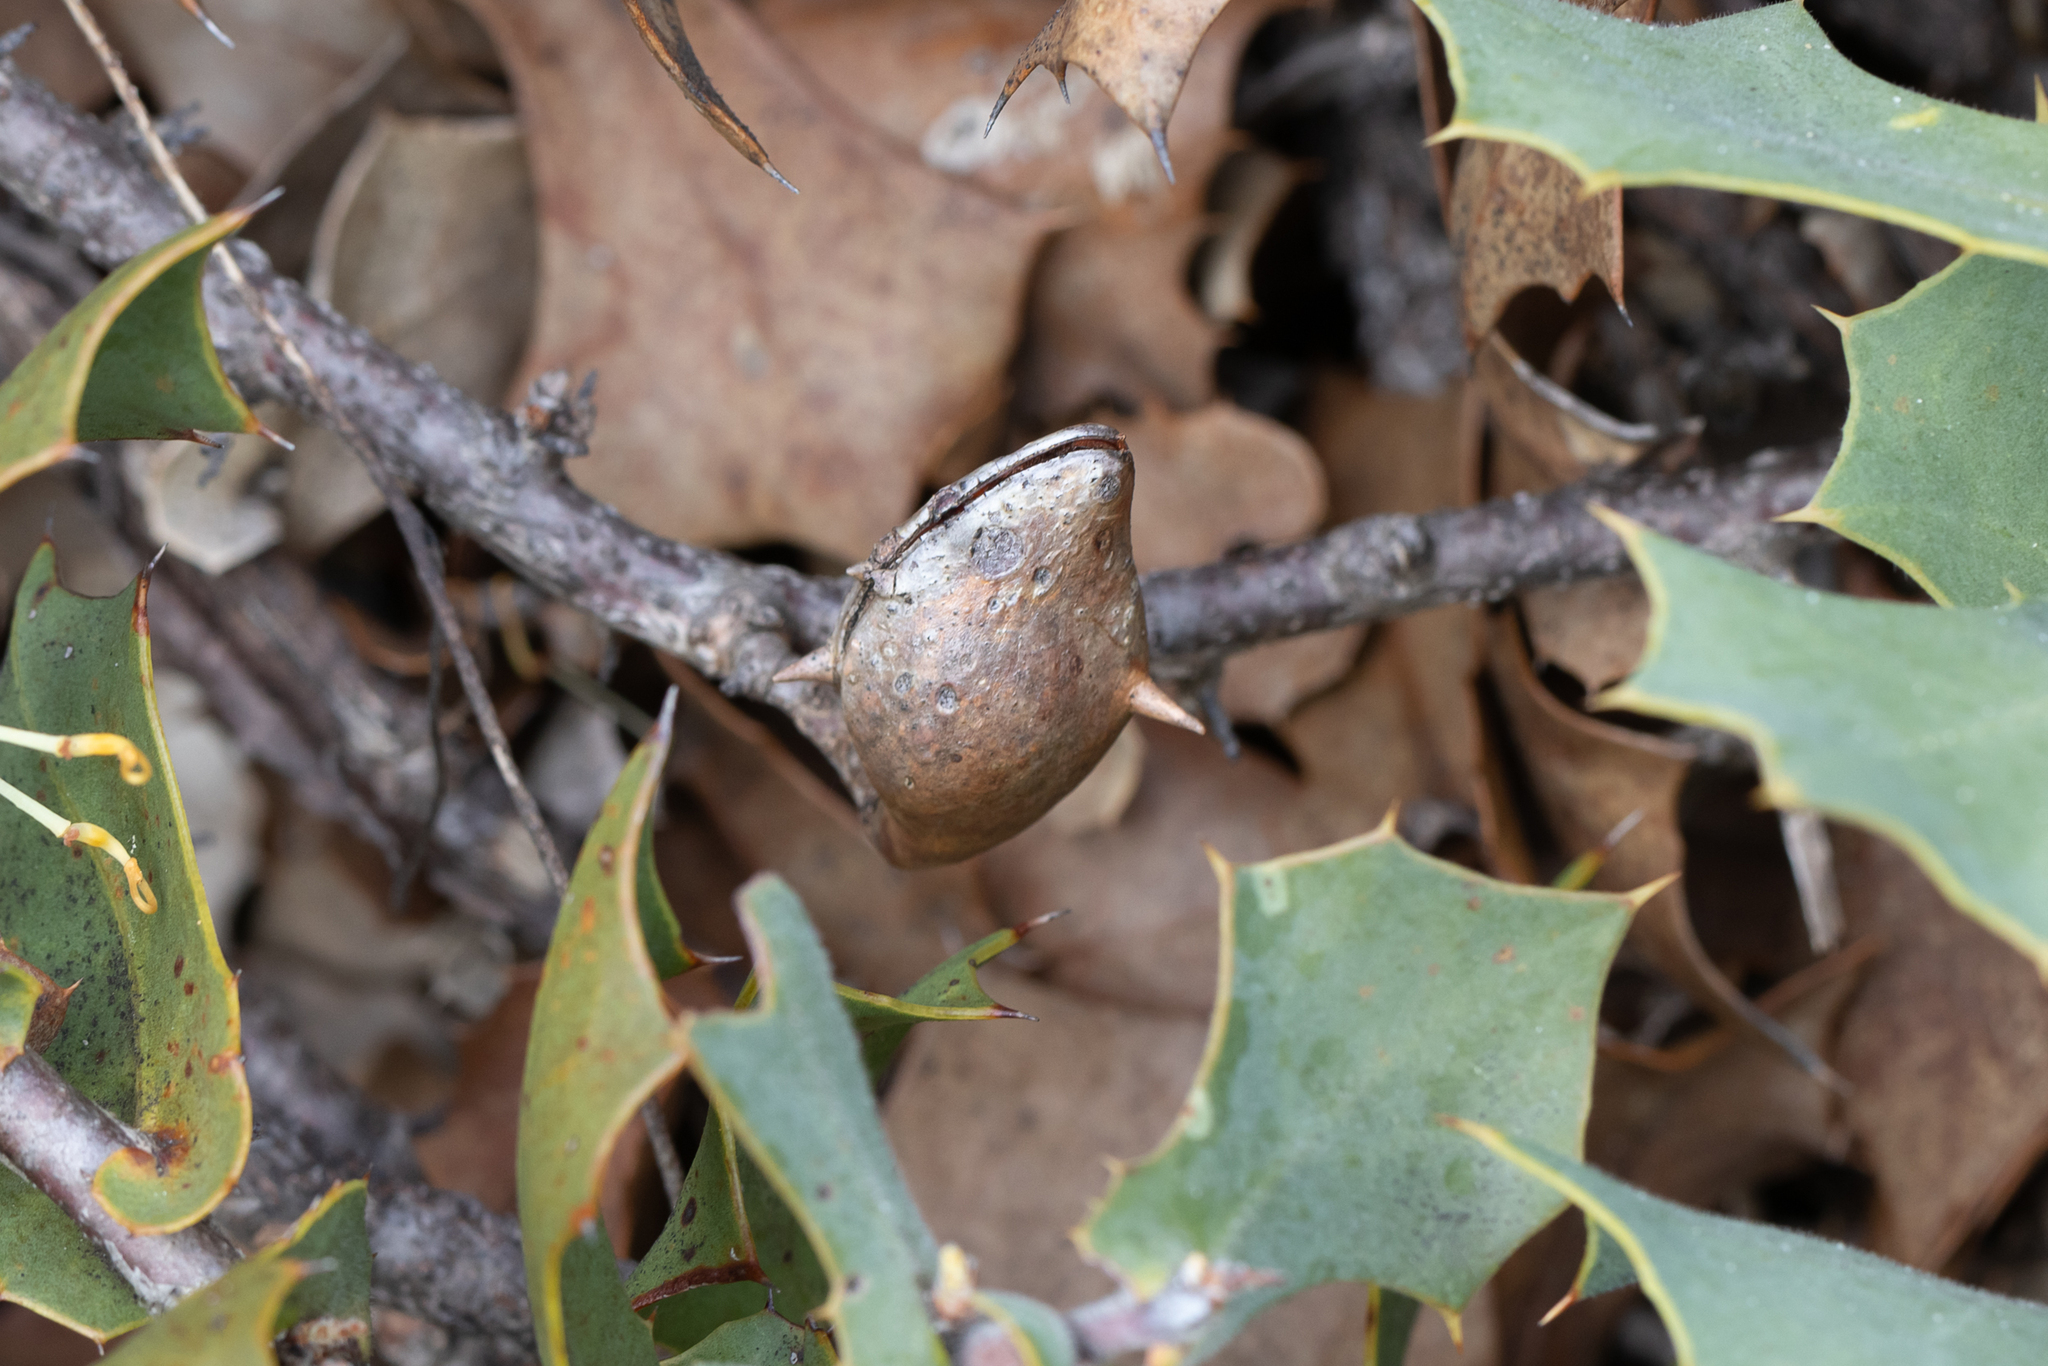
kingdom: Plantae
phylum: Tracheophyta
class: Magnoliopsida
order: Proteales
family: Proteaceae
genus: Hakea
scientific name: Hakea prostrata
